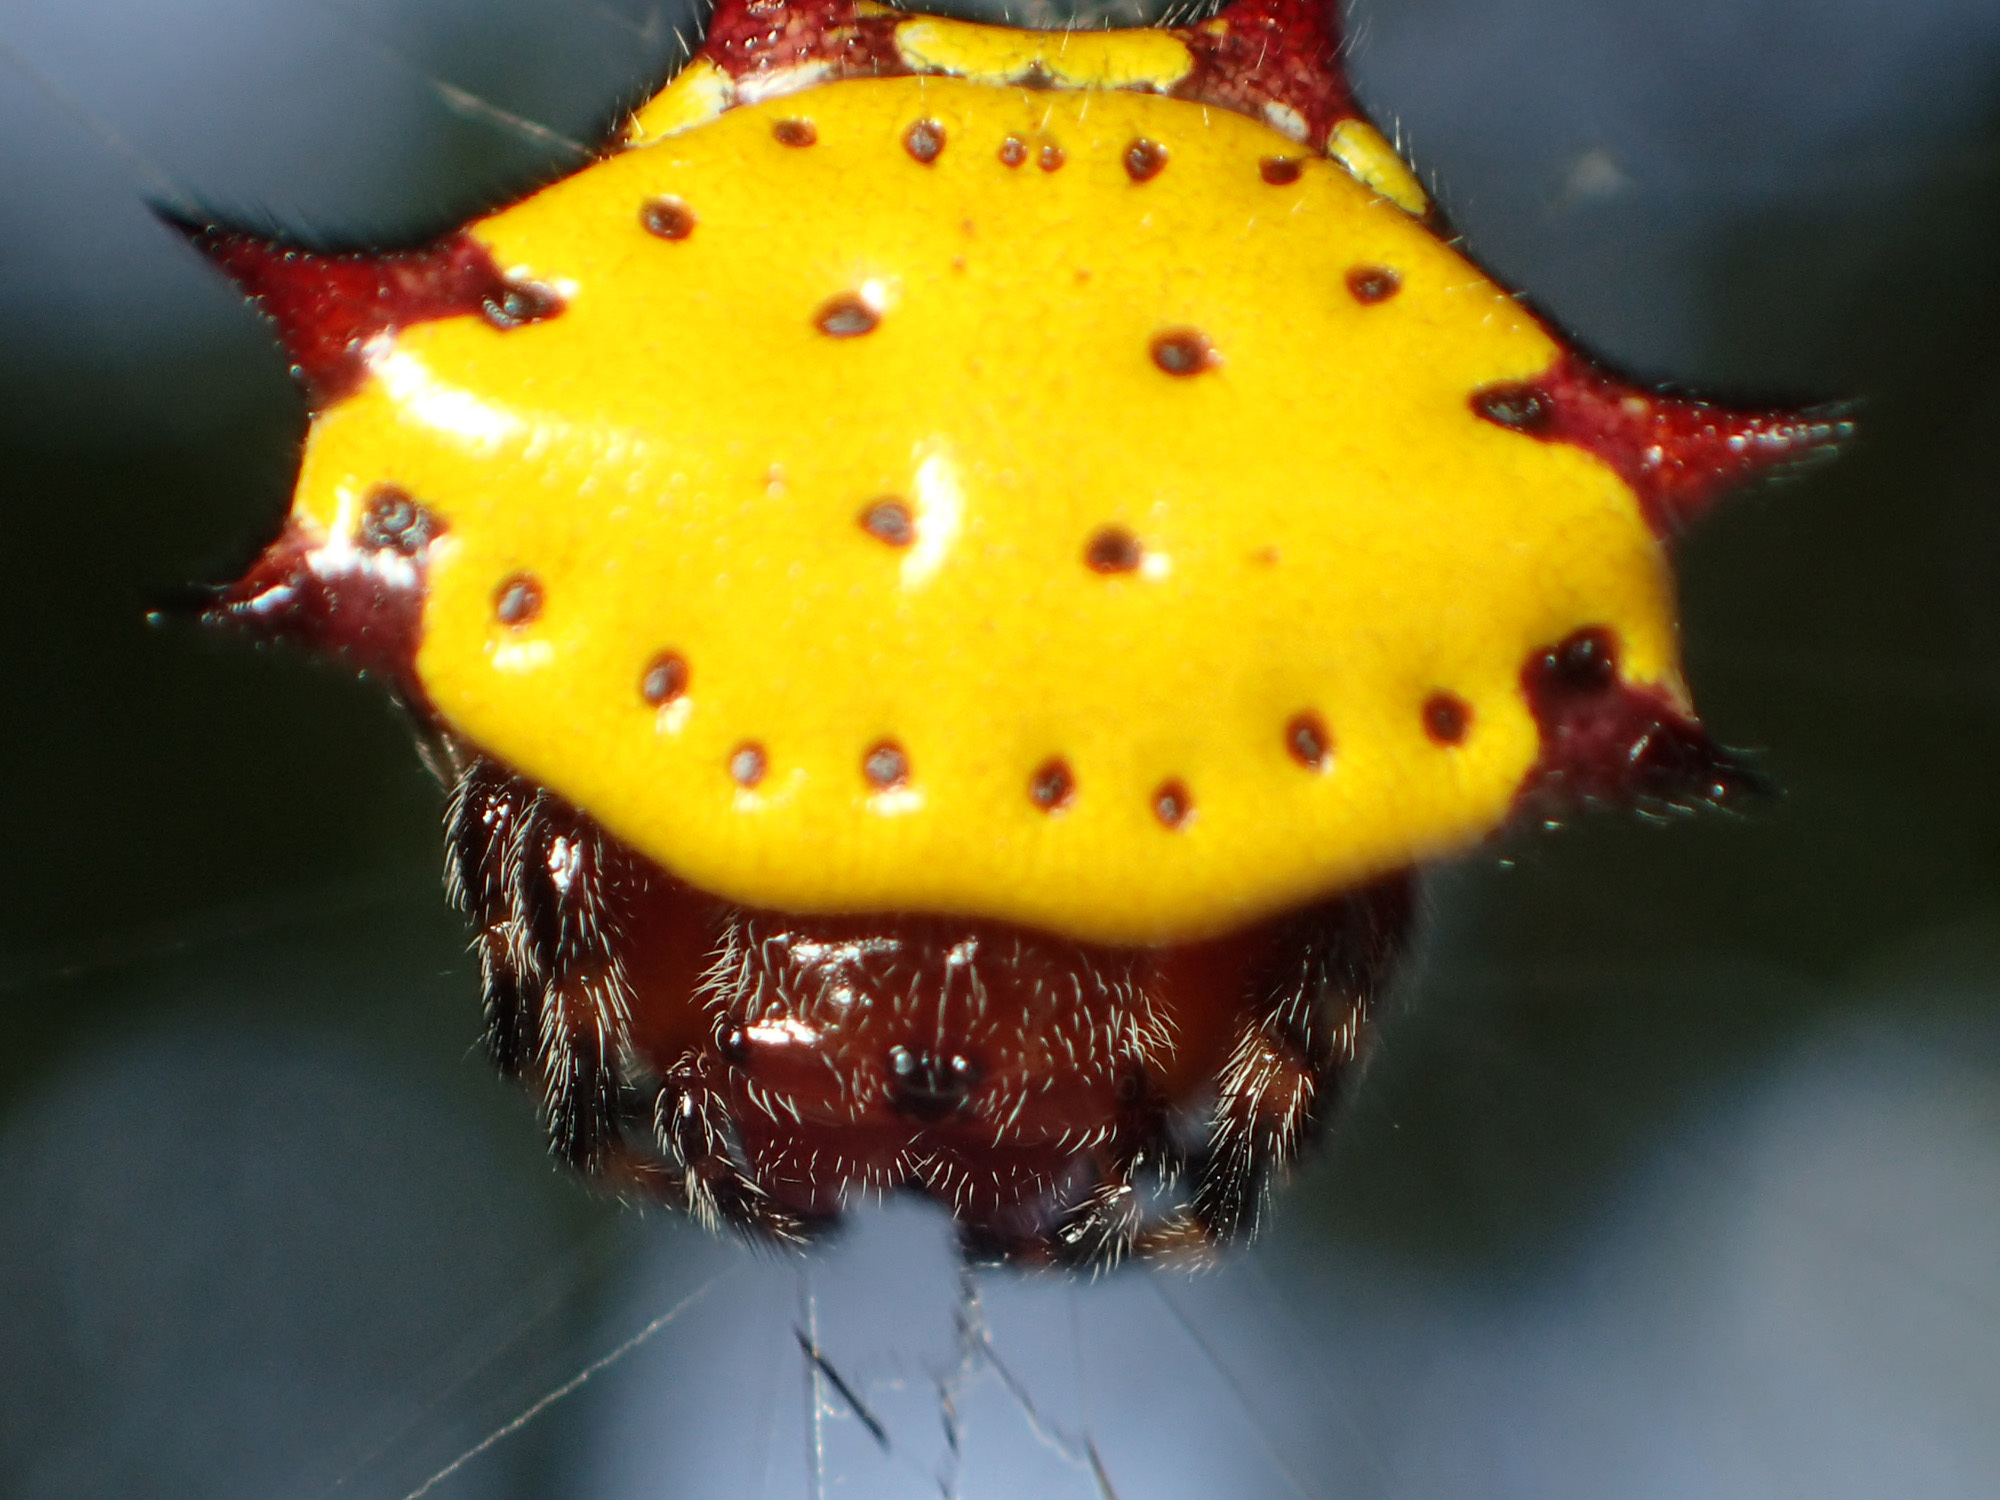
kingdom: Animalia
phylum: Arthropoda
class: Arachnida
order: Araneae
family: Araneidae
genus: Gasteracantha
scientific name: Gasteracantha cancriformis
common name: Orb weavers
